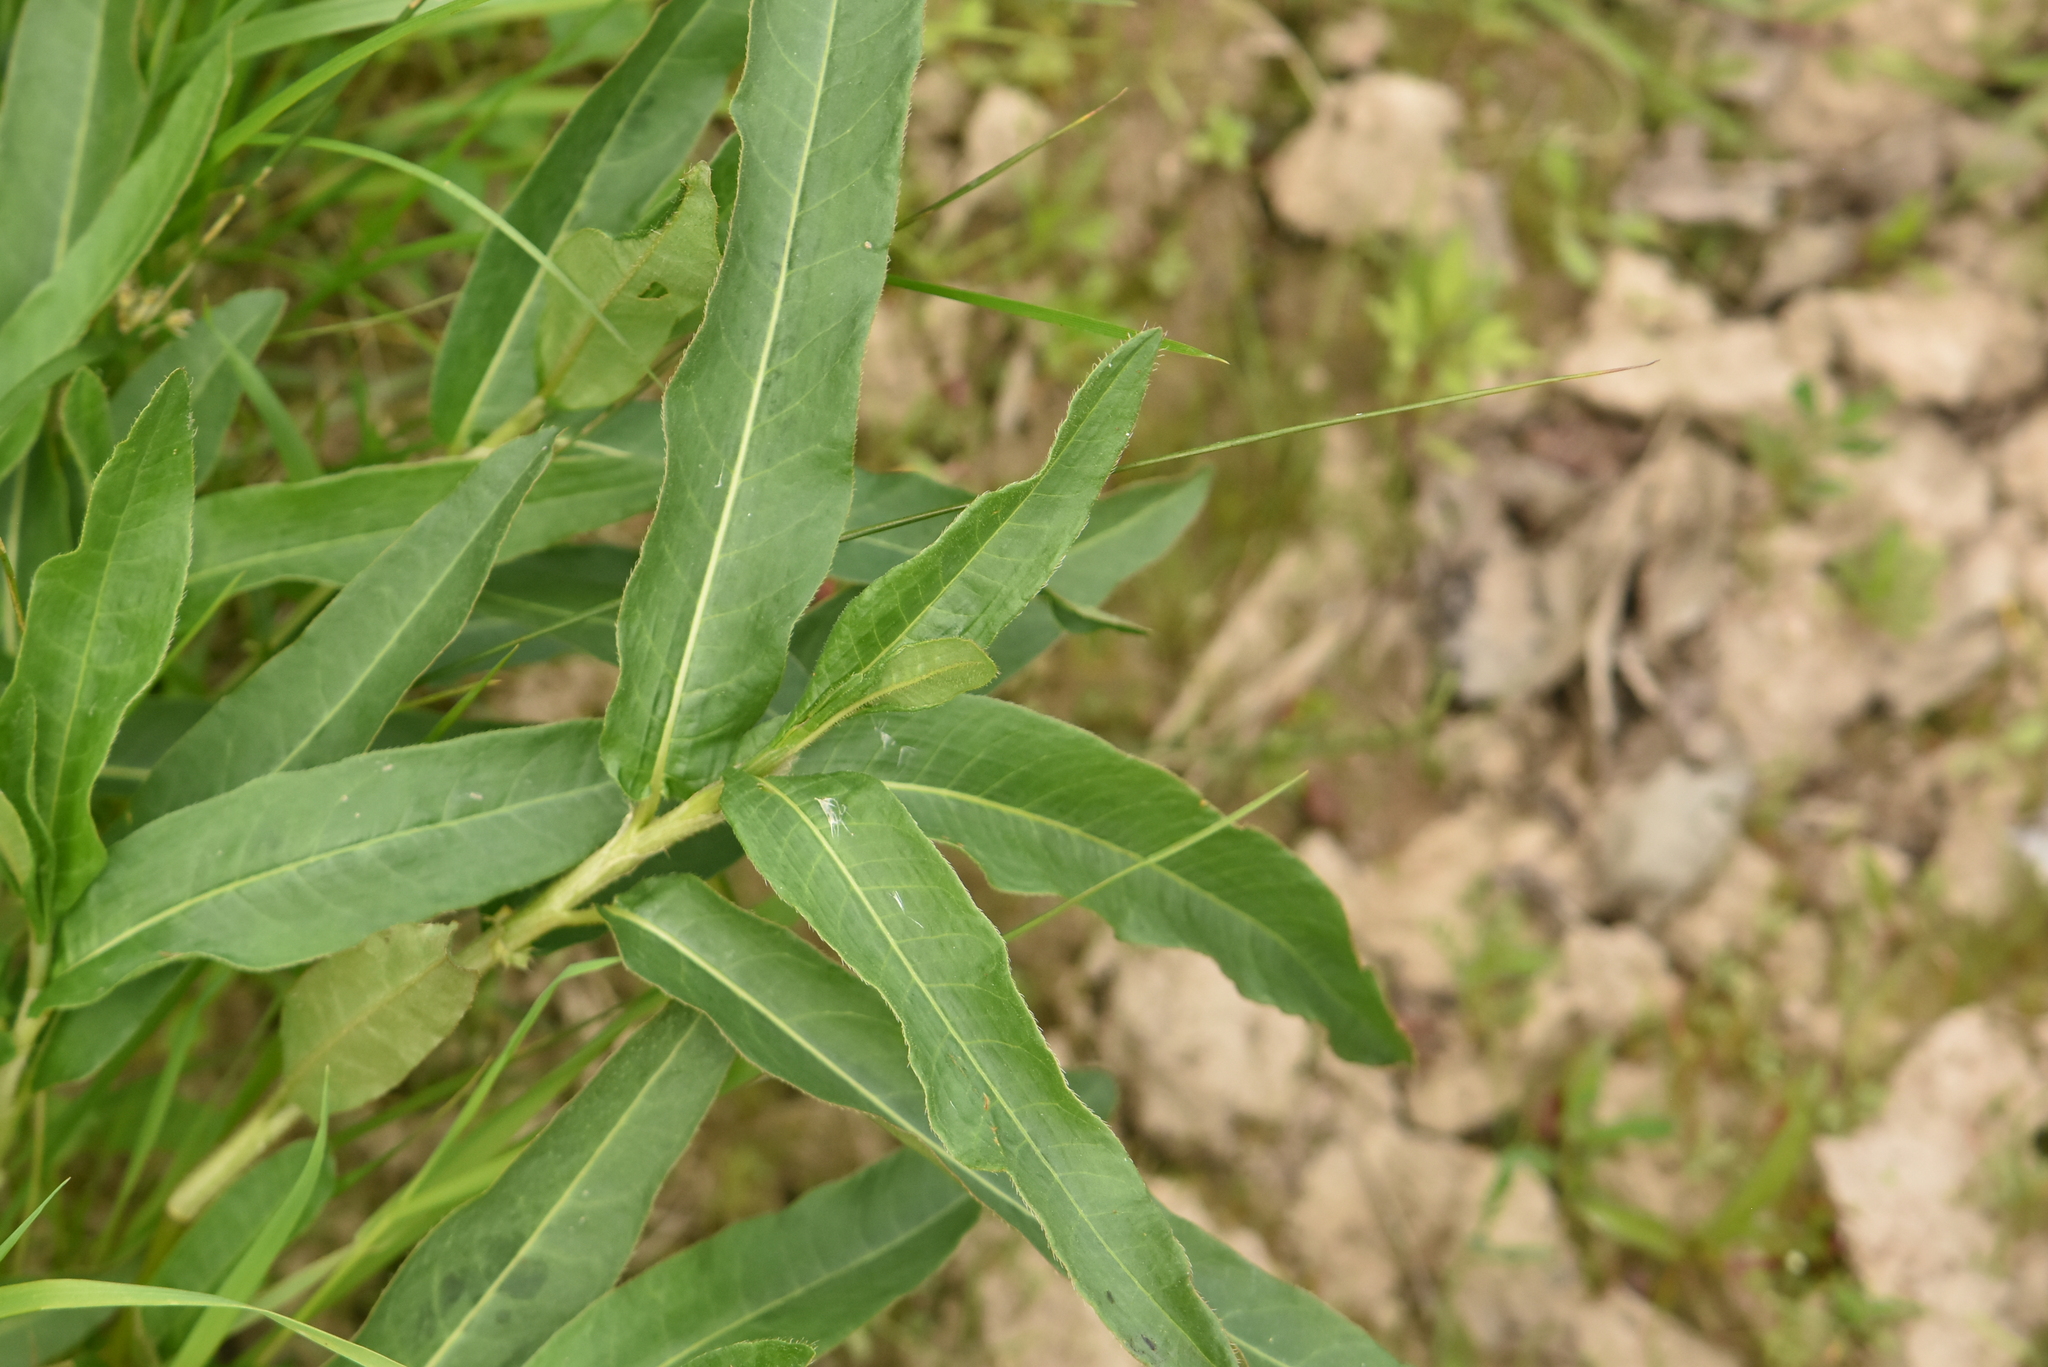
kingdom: Plantae
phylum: Tracheophyta
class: Magnoliopsida
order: Caryophyllales
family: Polygonaceae
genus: Persicaria
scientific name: Persicaria amphibia
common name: Amphibious bistort
